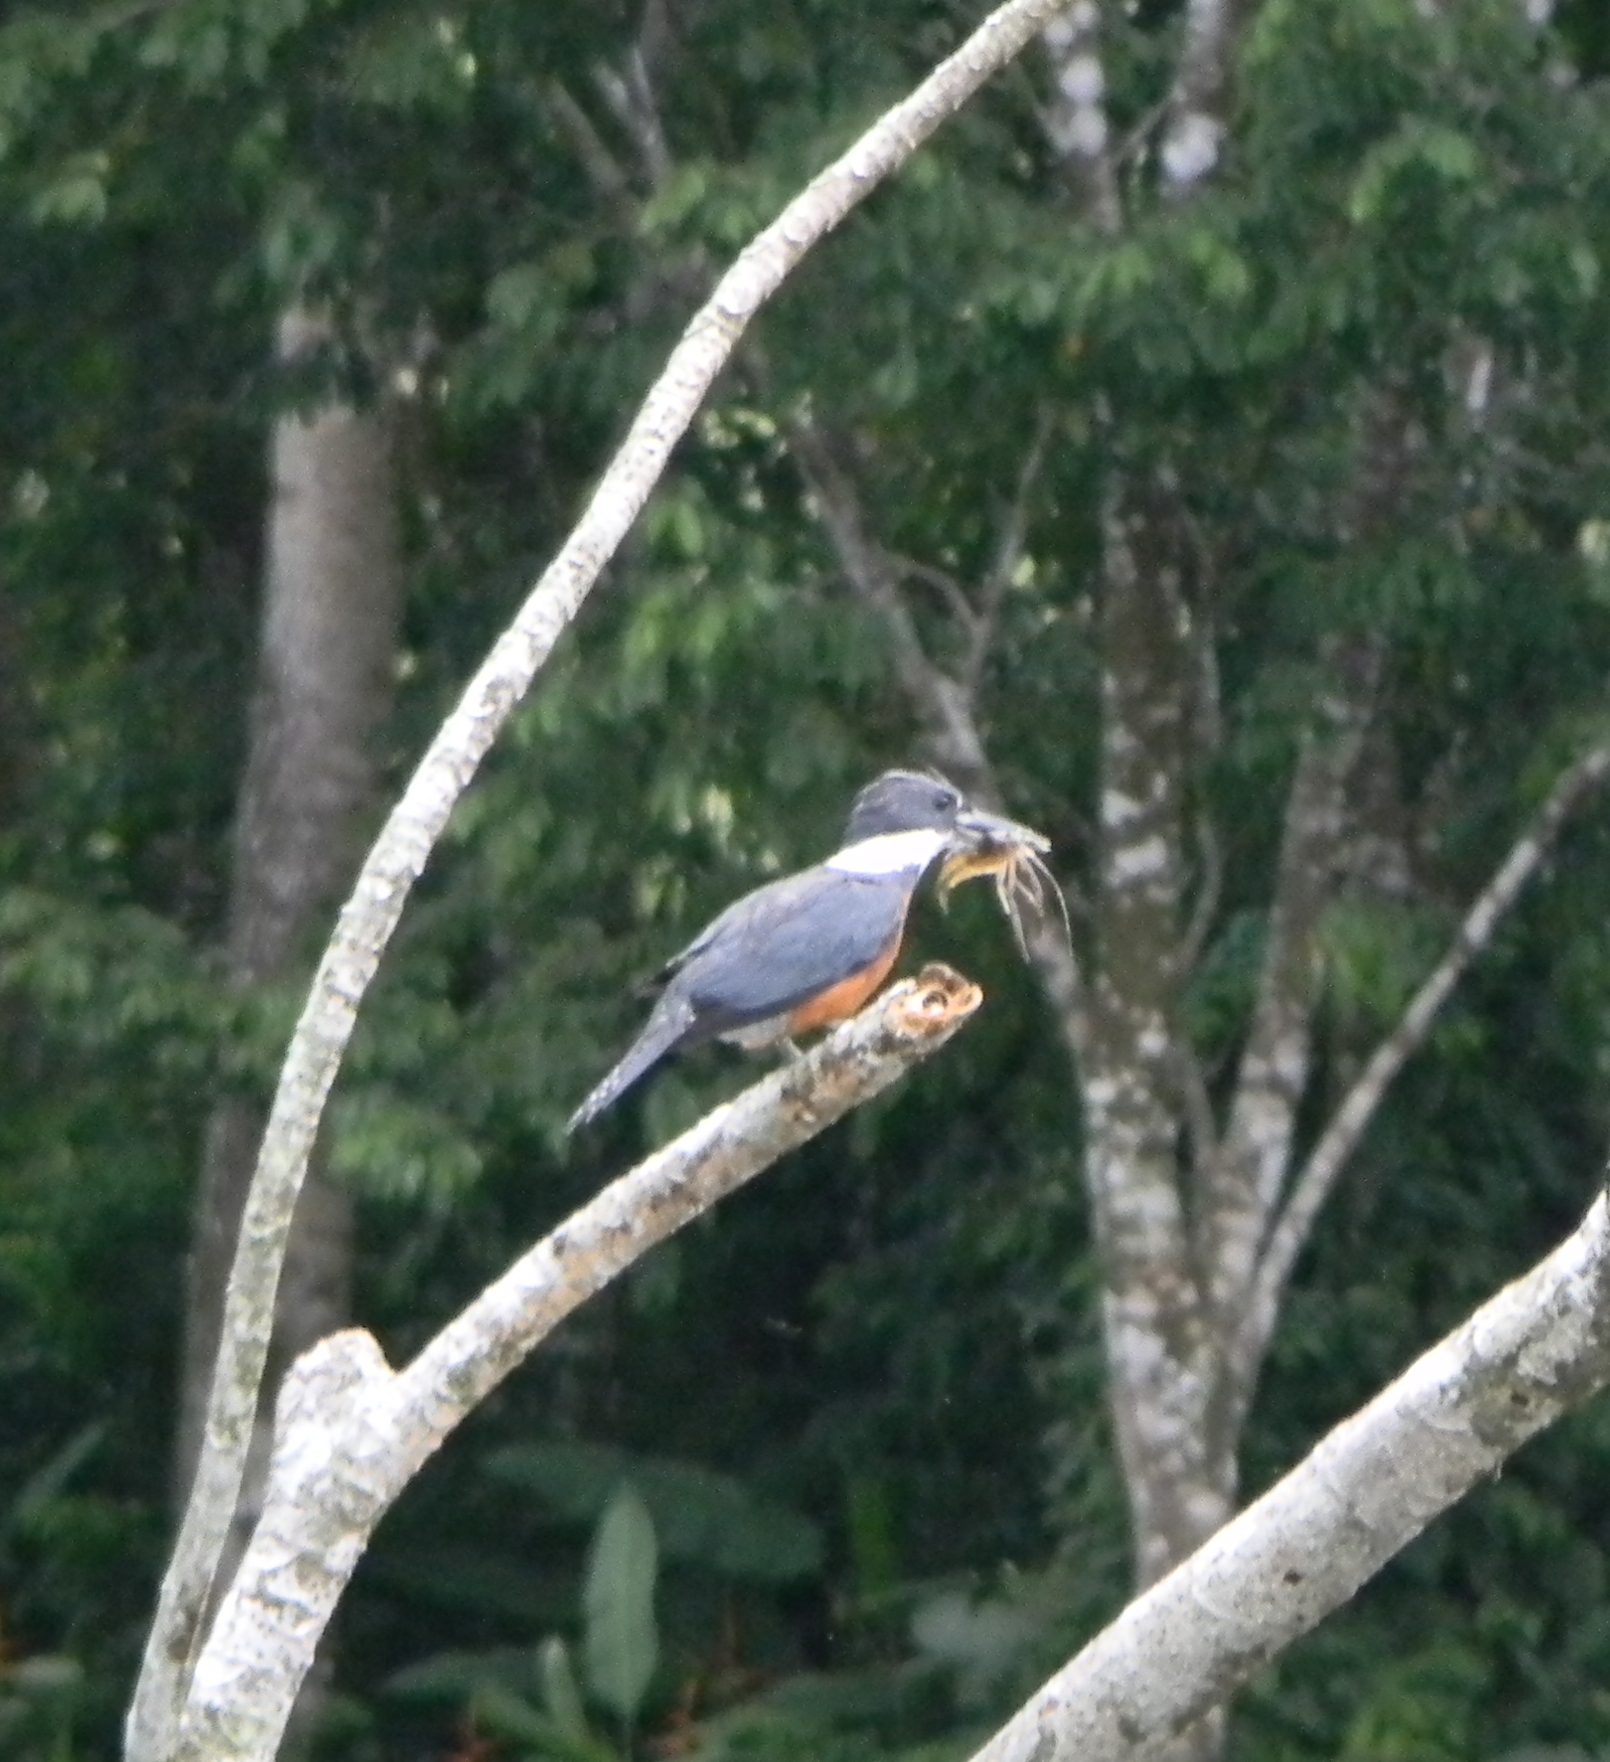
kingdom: Animalia
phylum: Chordata
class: Aves
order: Coraciiformes
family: Alcedinidae
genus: Megaceryle
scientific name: Megaceryle torquata
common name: Ringed kingfisher
